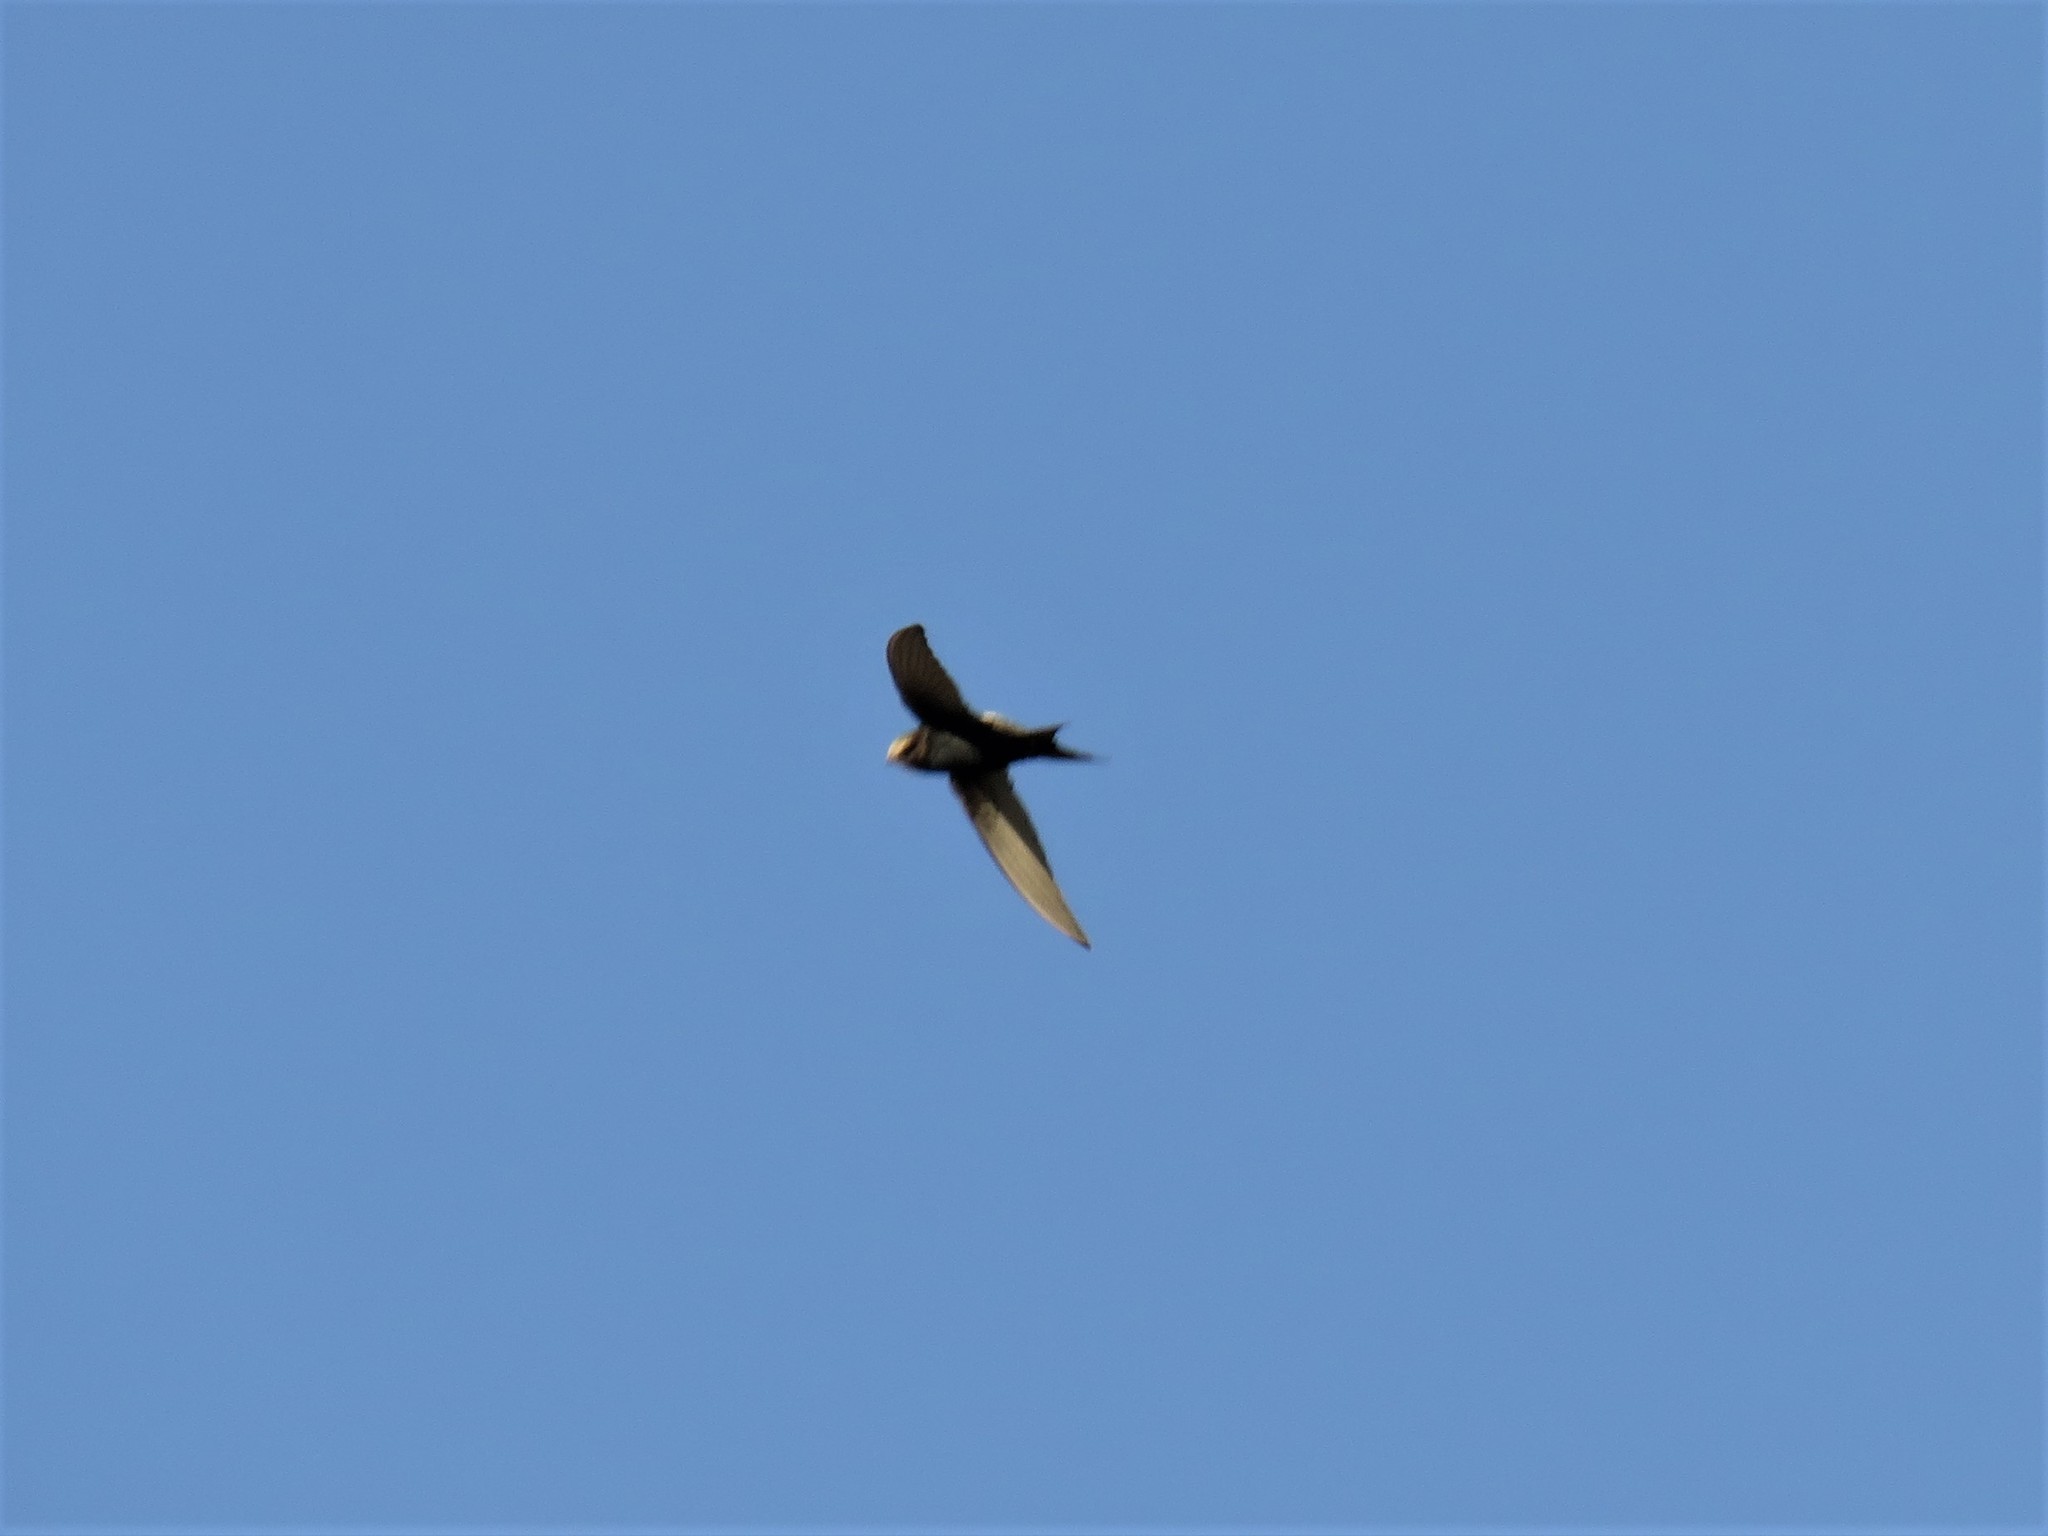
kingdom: Animalia
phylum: Chordata
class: Aves
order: Apodiformes
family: Apodidae
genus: Apus
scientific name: Apus caffer
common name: White-rumped swift
